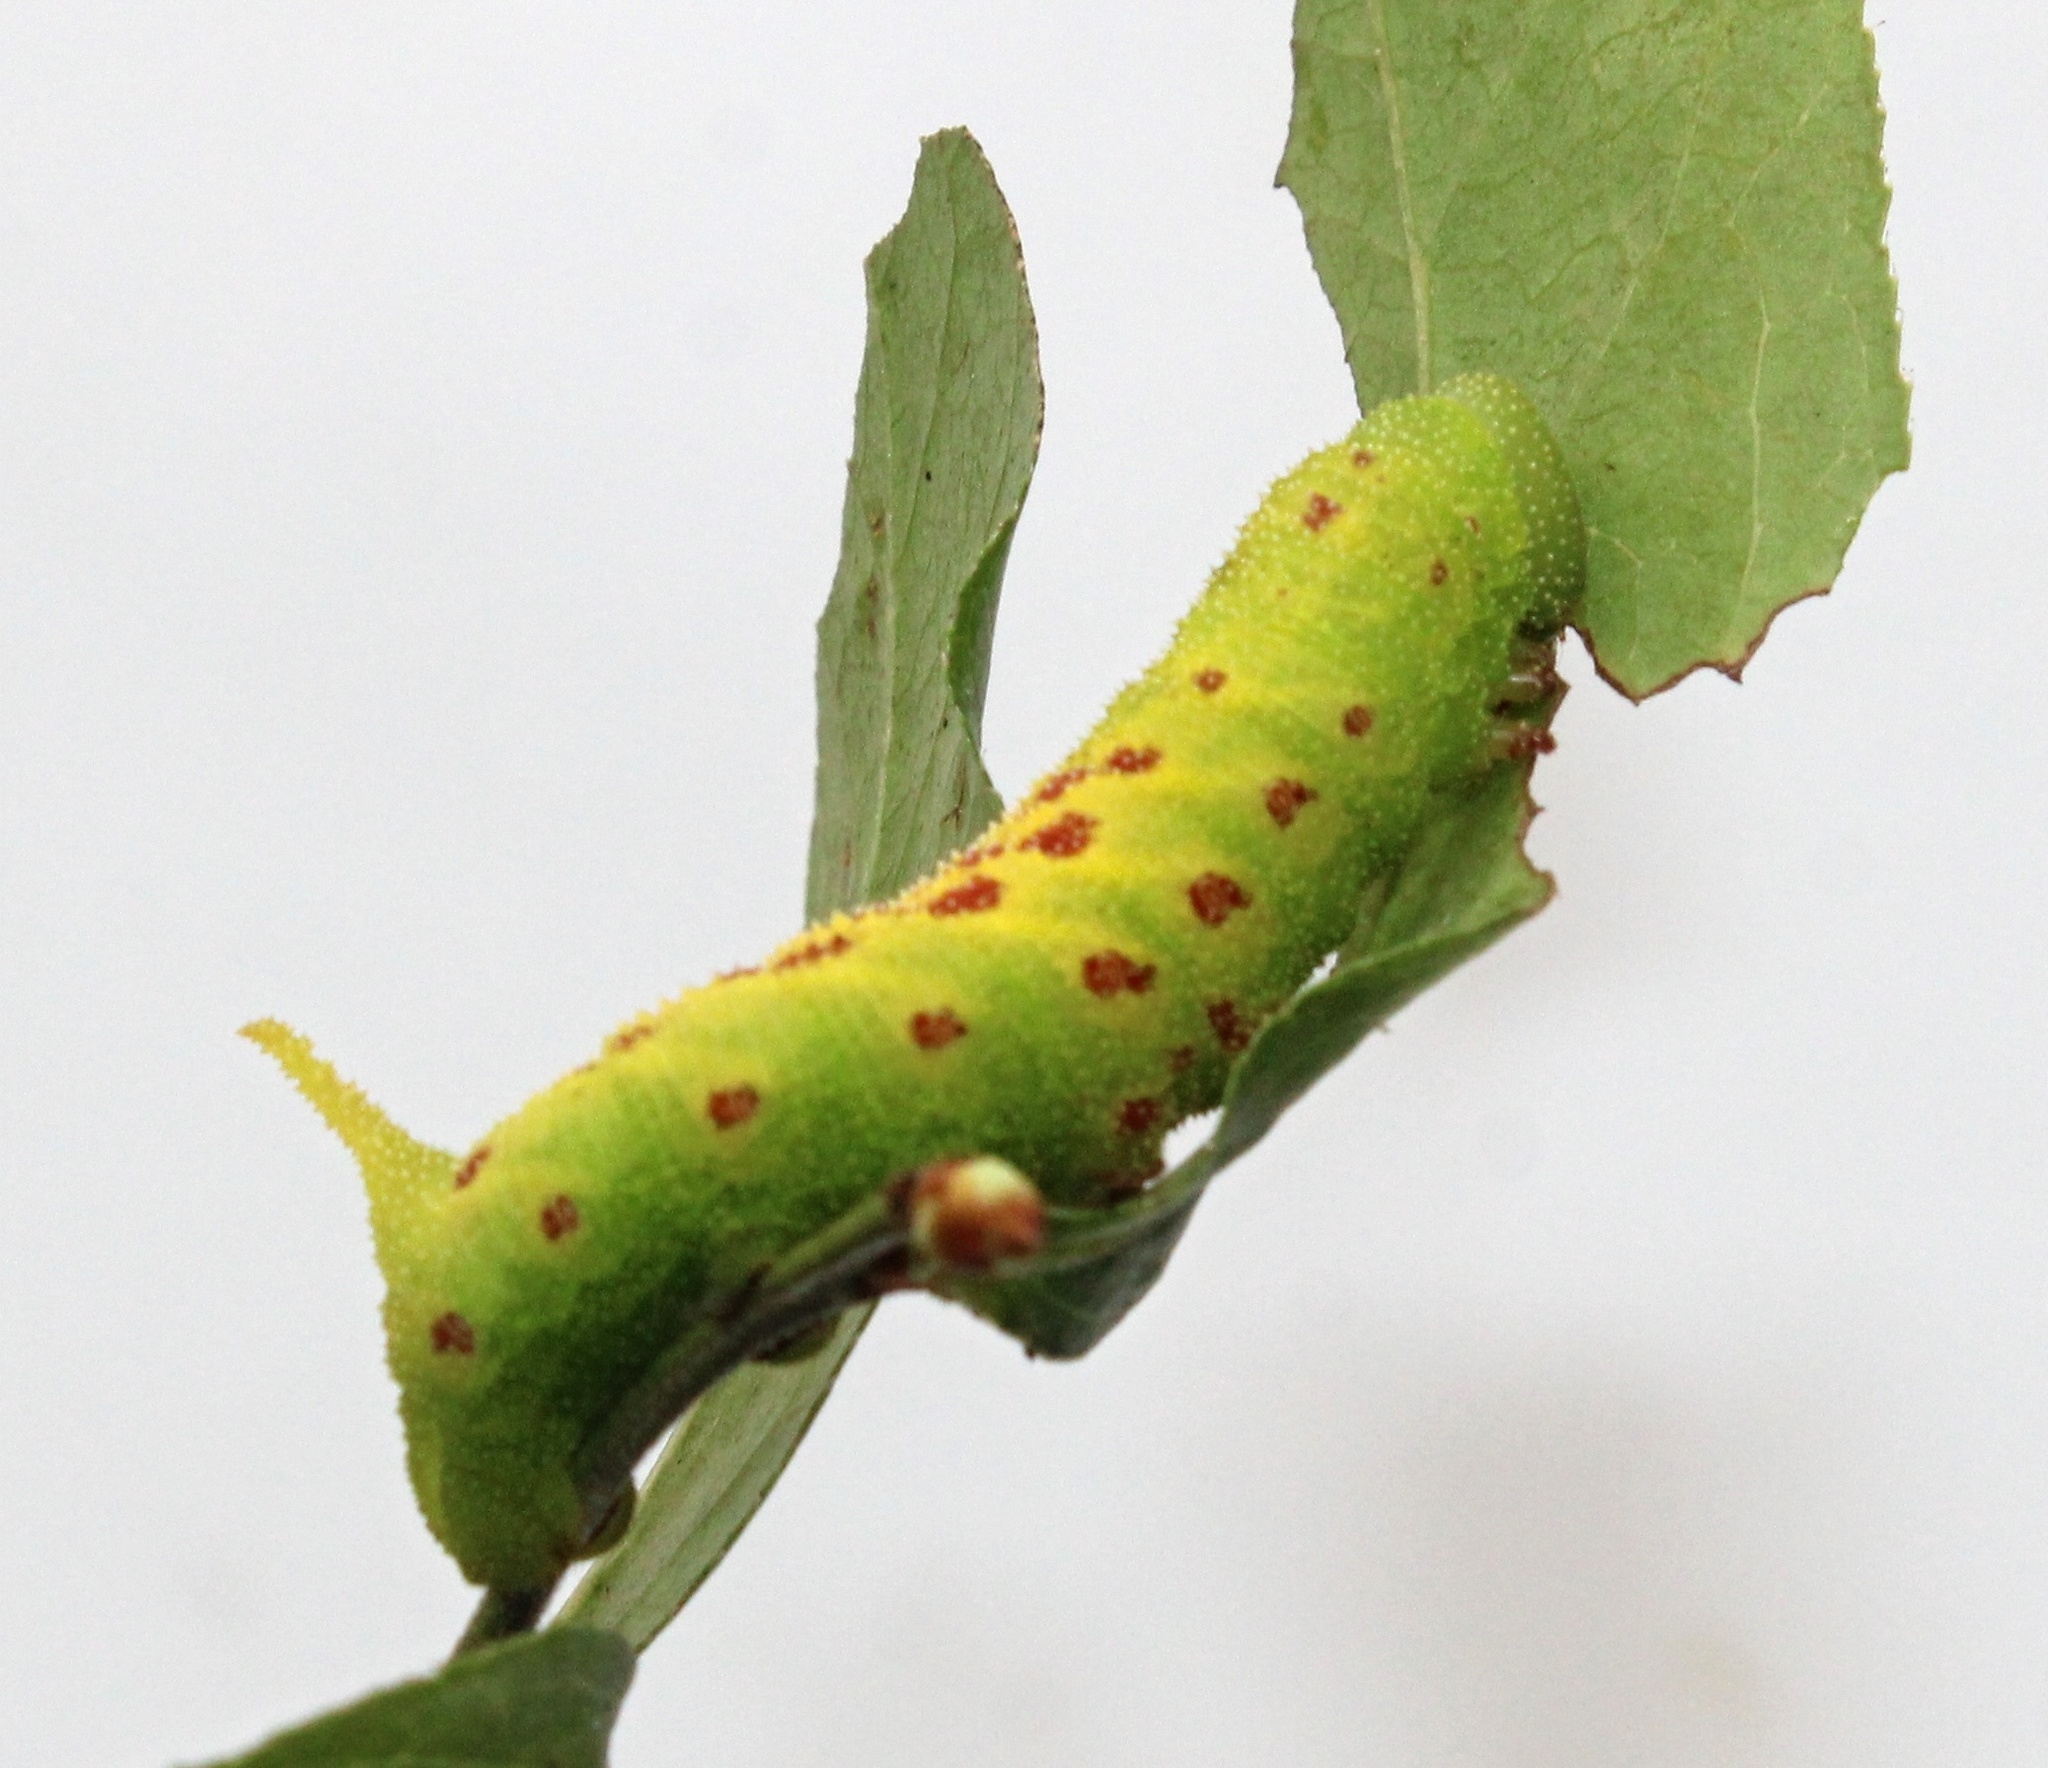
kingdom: Animalia
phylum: Arthropoda
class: Insecta
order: Lepidoptera
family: Sphingidae
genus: Paonias
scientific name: Paonias astylus
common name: Huckleberry sphinx
